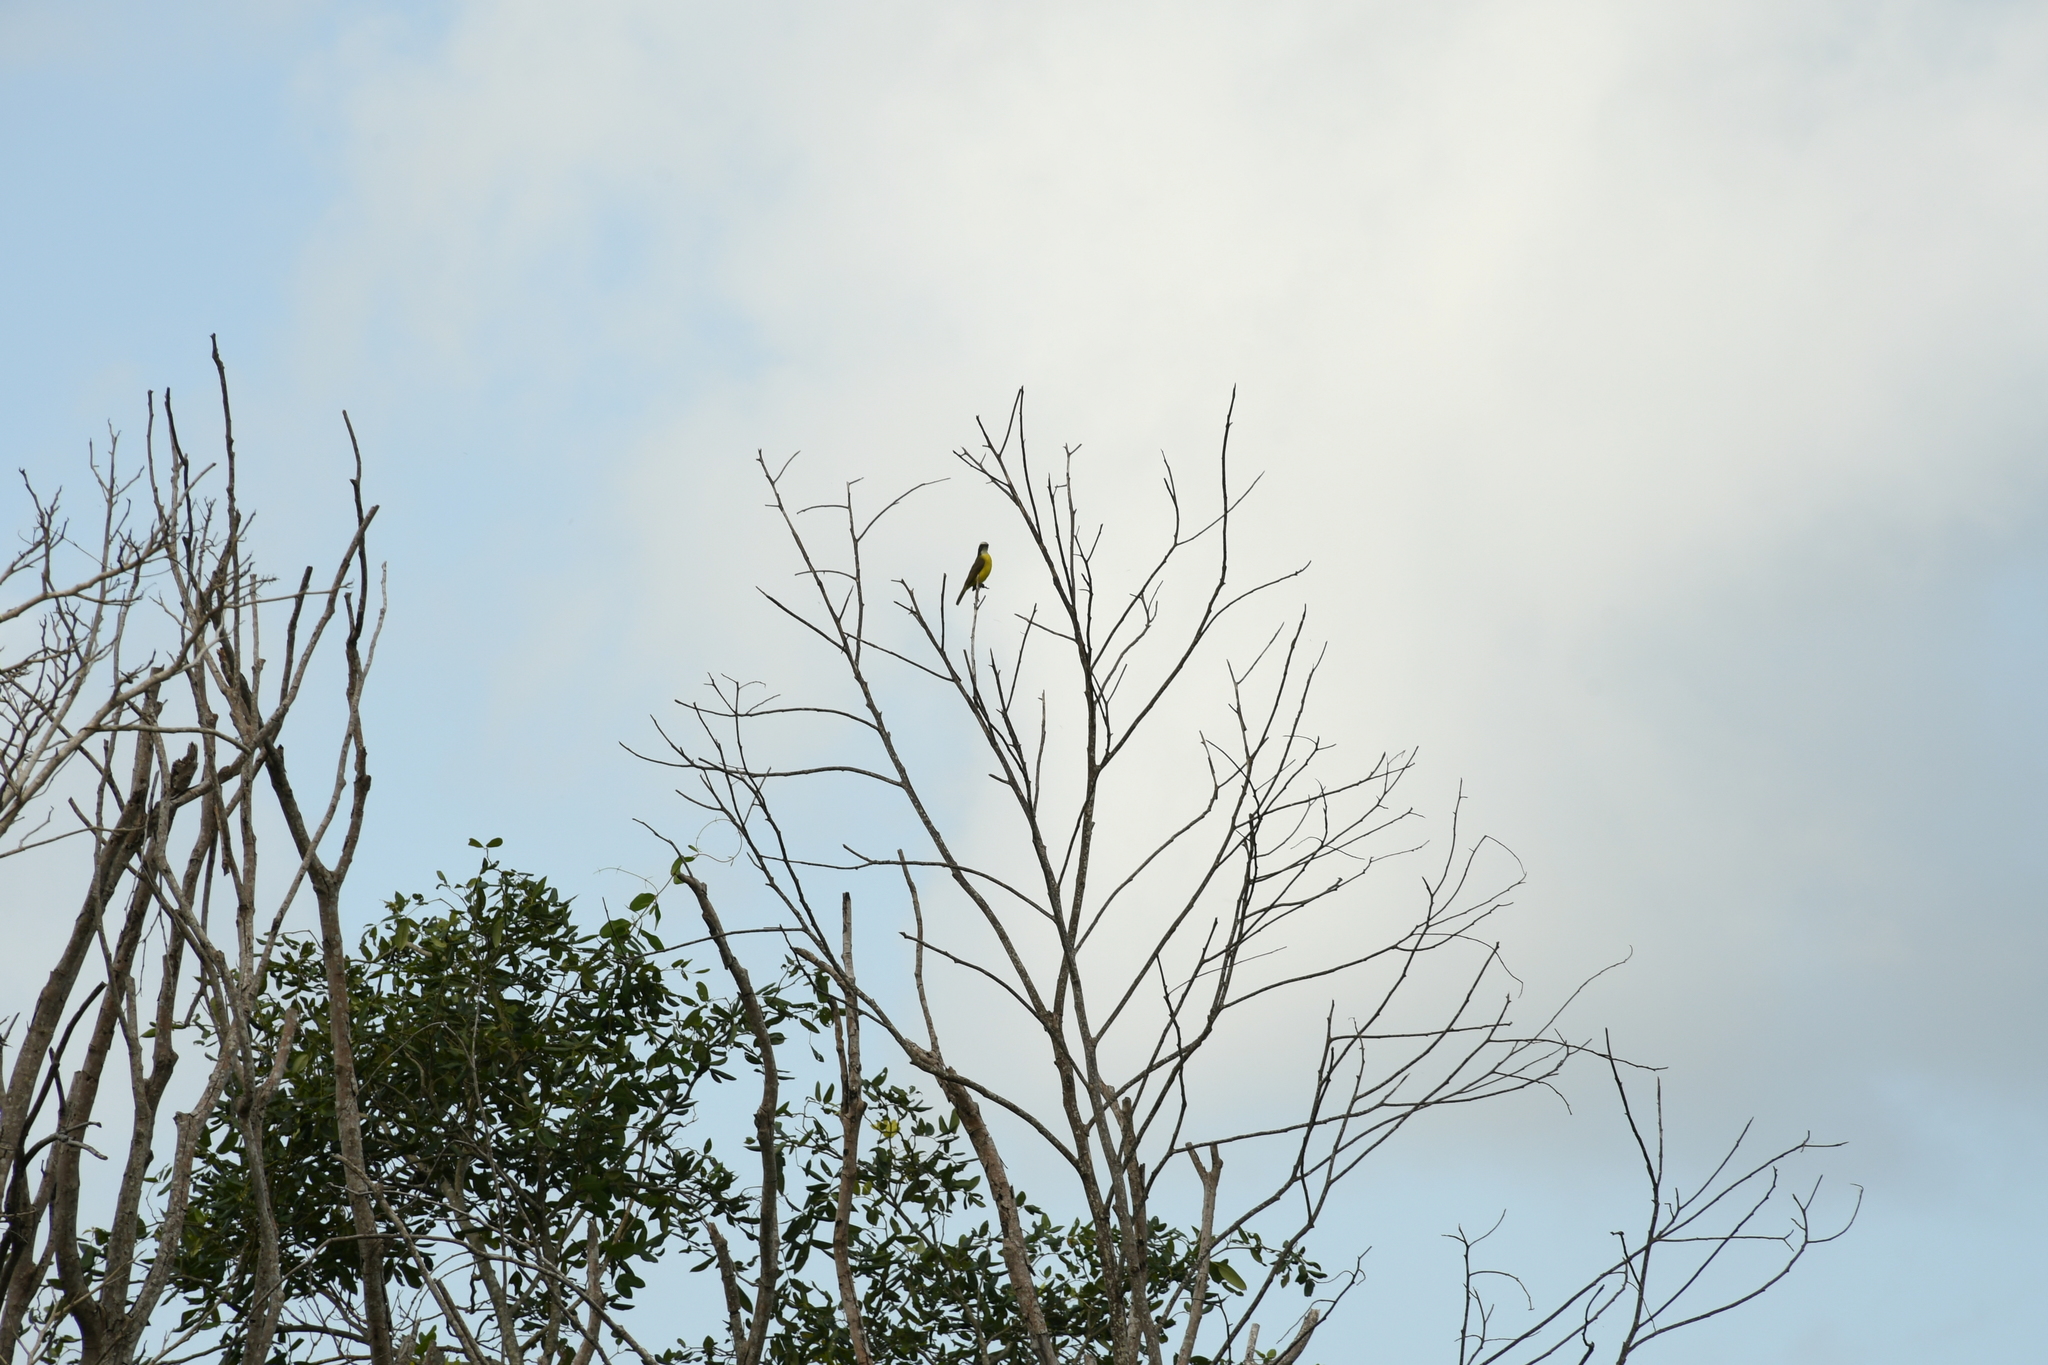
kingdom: Animalia
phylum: Chordata
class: Aves
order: Passeriformes
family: Tyrannidae
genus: Myiozetetes
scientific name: Myiozetetes similis
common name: Social flycatcher
